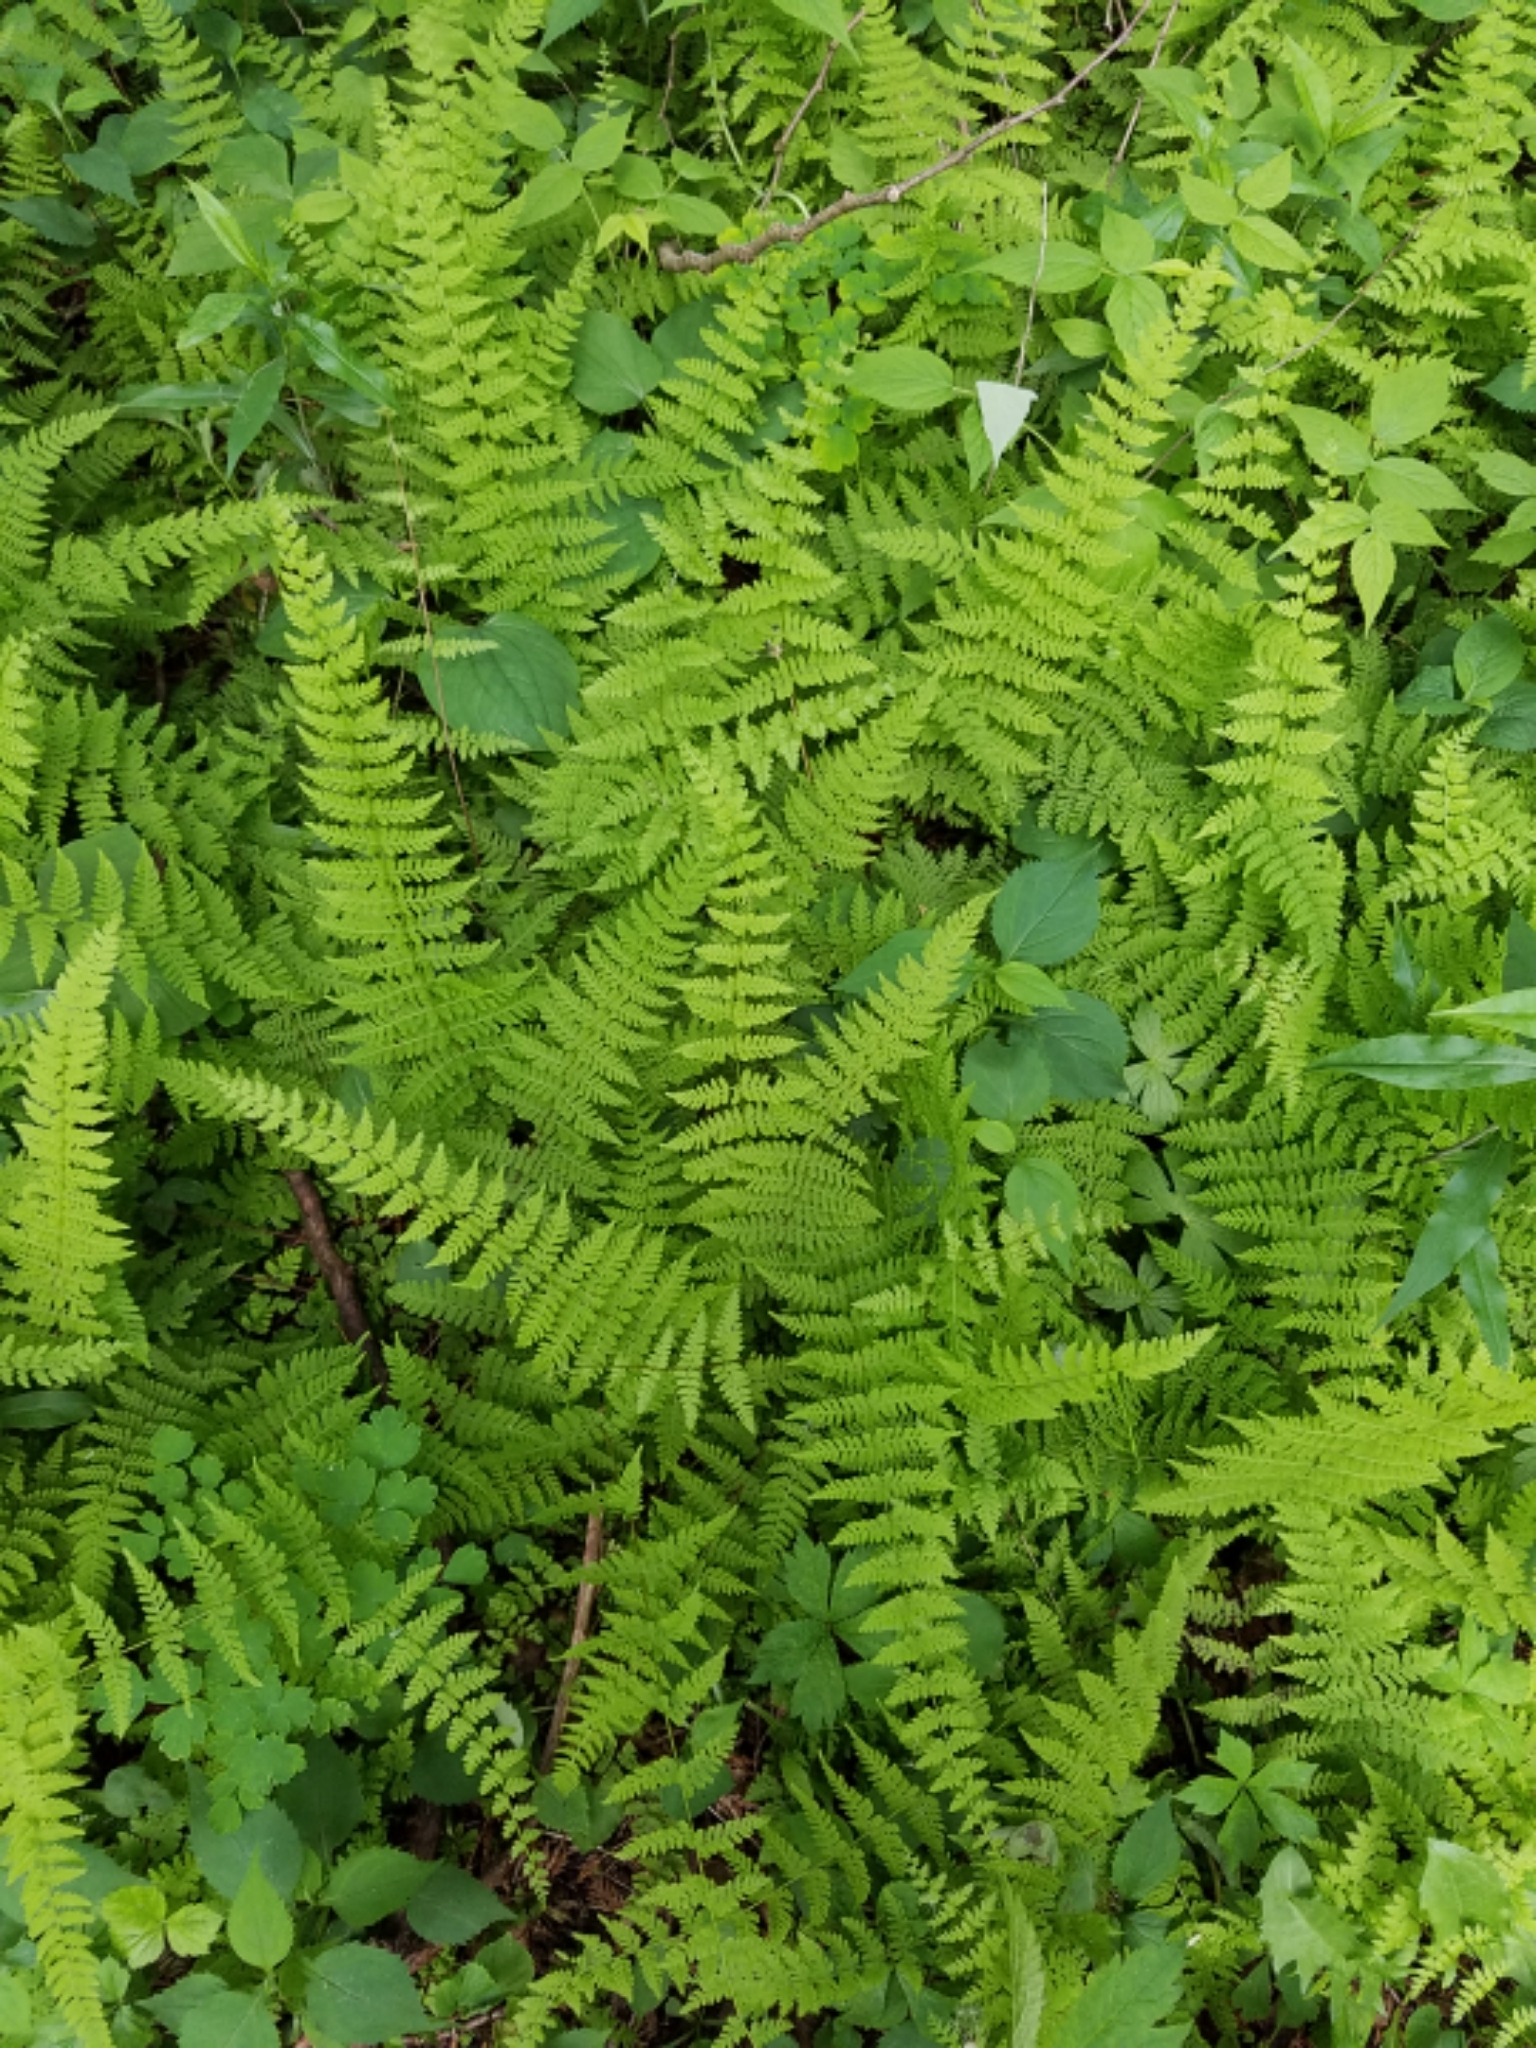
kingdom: Plantae
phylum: Tracheophyta
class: Polypodiopsida
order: Polypodiales
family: Cystopteridaceae
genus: Cystopteris
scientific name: Cystopteris bulbifera
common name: Bulblet bladder fern
